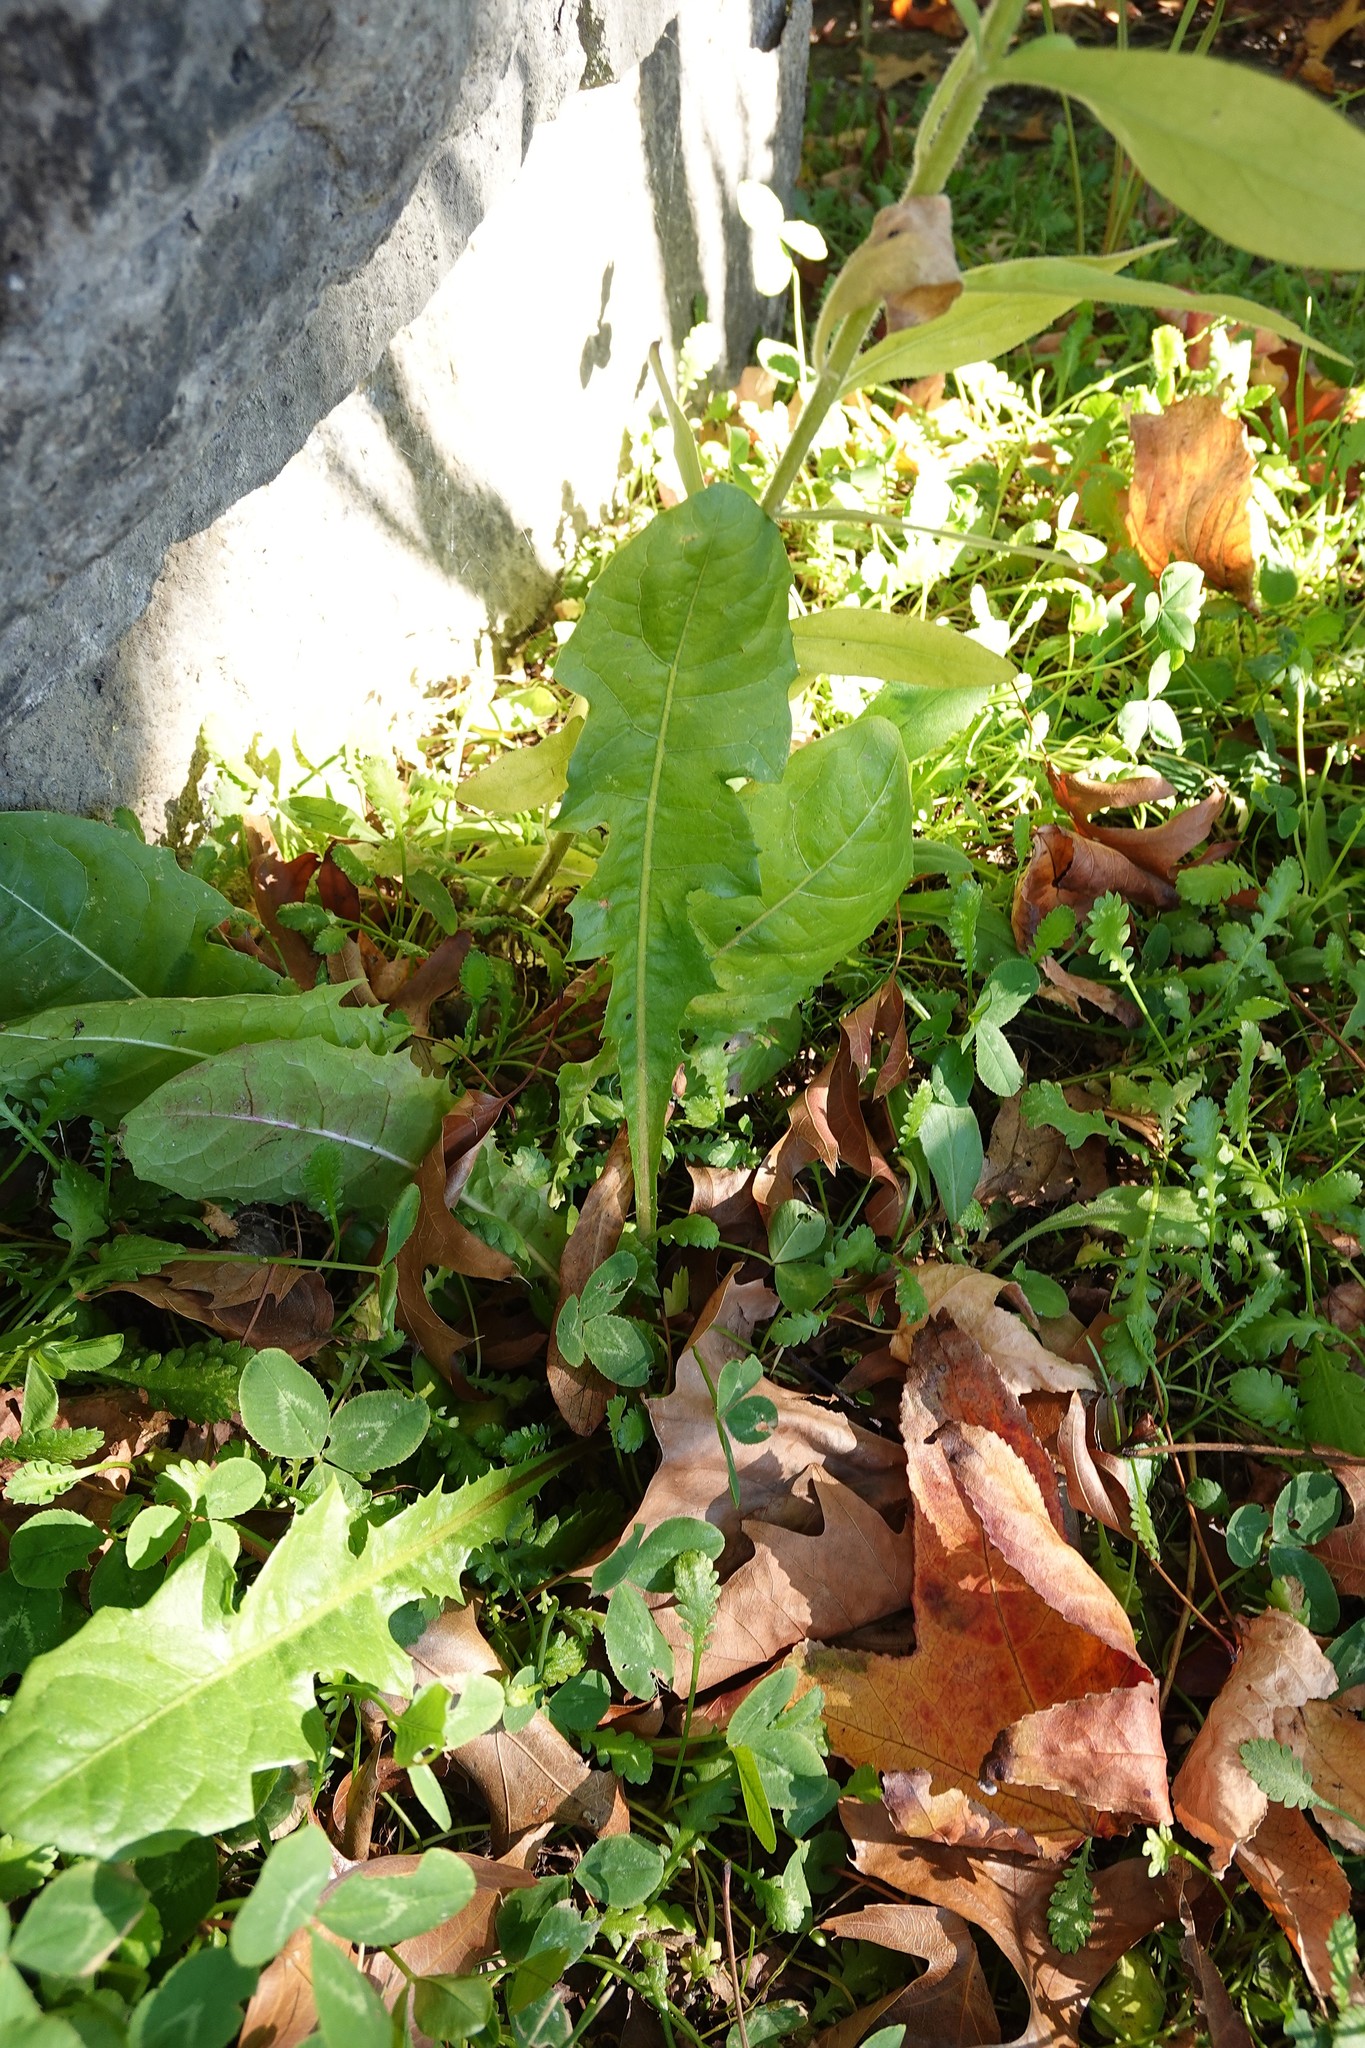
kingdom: Plantae
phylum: Tracheophyta
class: Magnoliopsida
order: Fabales
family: Fabaceae
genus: Trifolium
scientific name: Trifolium repens
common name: White clover
